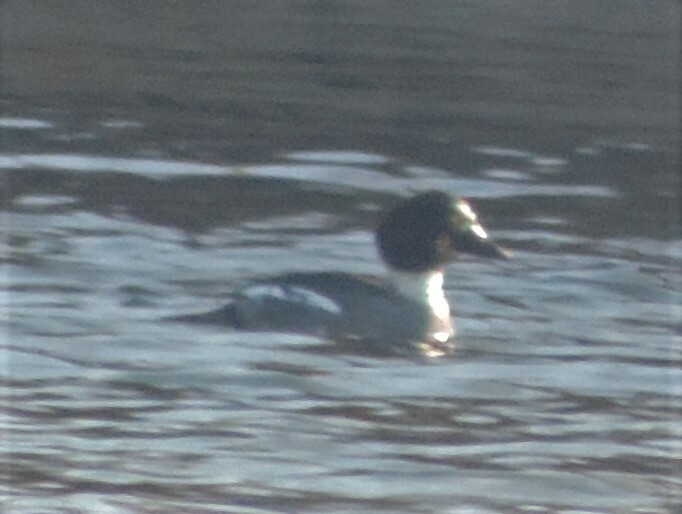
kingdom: Animalia
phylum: Chordata
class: Aves
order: Anseriformes
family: Anatidae
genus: Bucephala
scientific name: Bucephala clangula
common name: Common goldeneye
